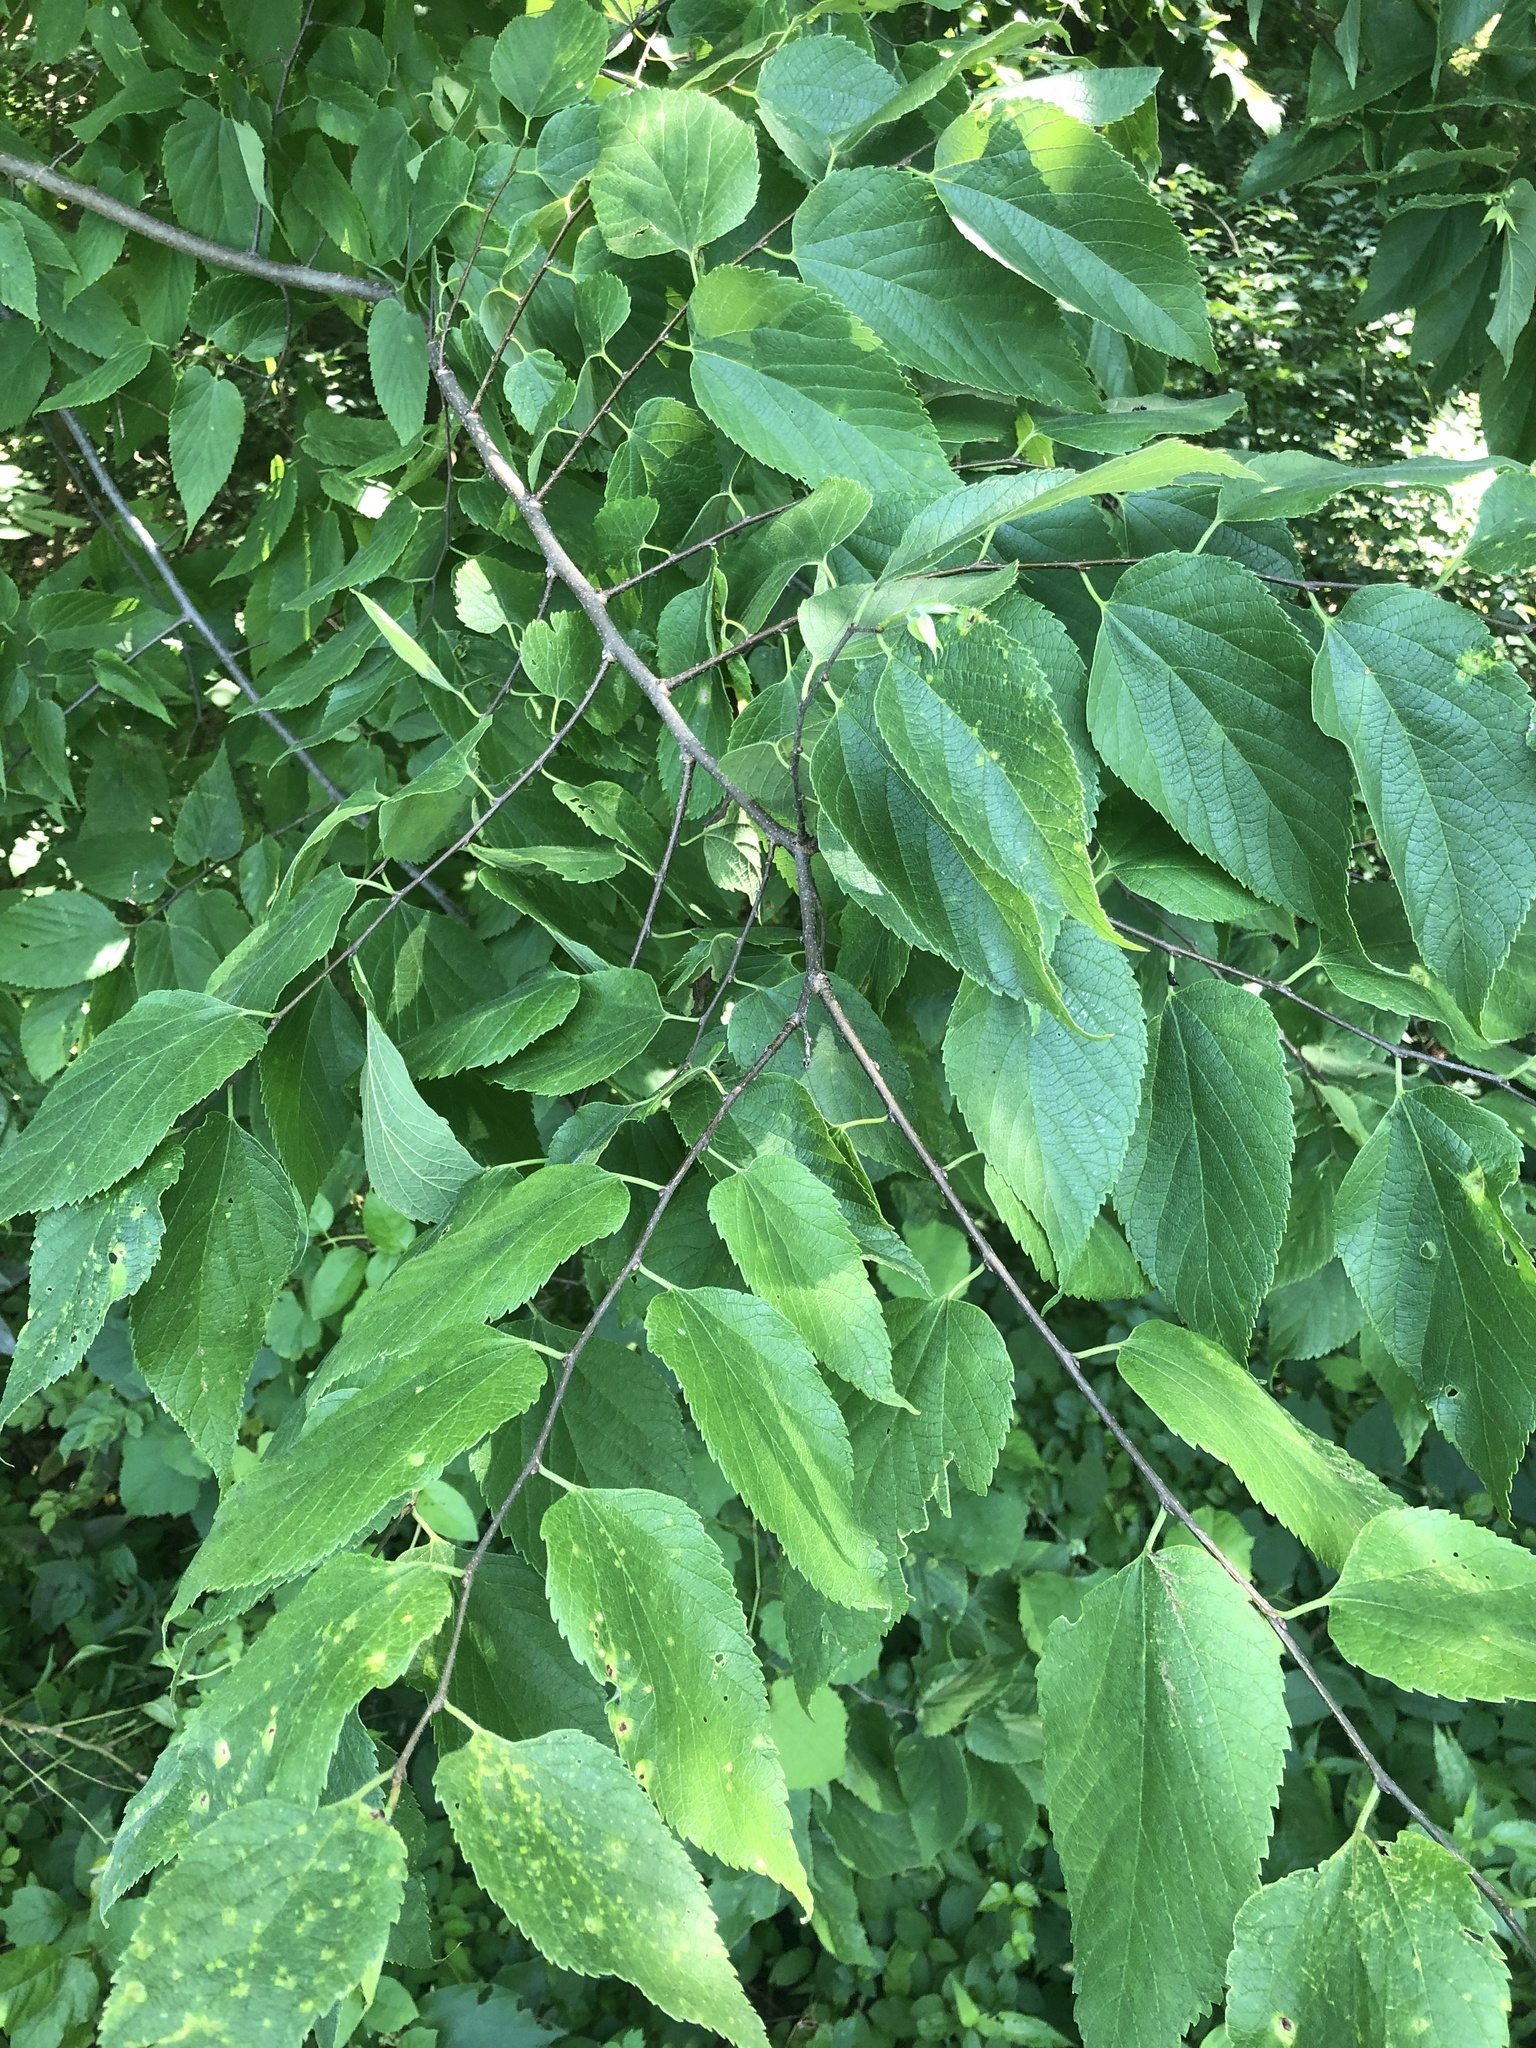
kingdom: Plantae
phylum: Tracheophyta
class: Magnoliopsida
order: Rosales
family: Cannabaceae
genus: Celtis
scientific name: Celtis occidentalis
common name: Common hackberry
